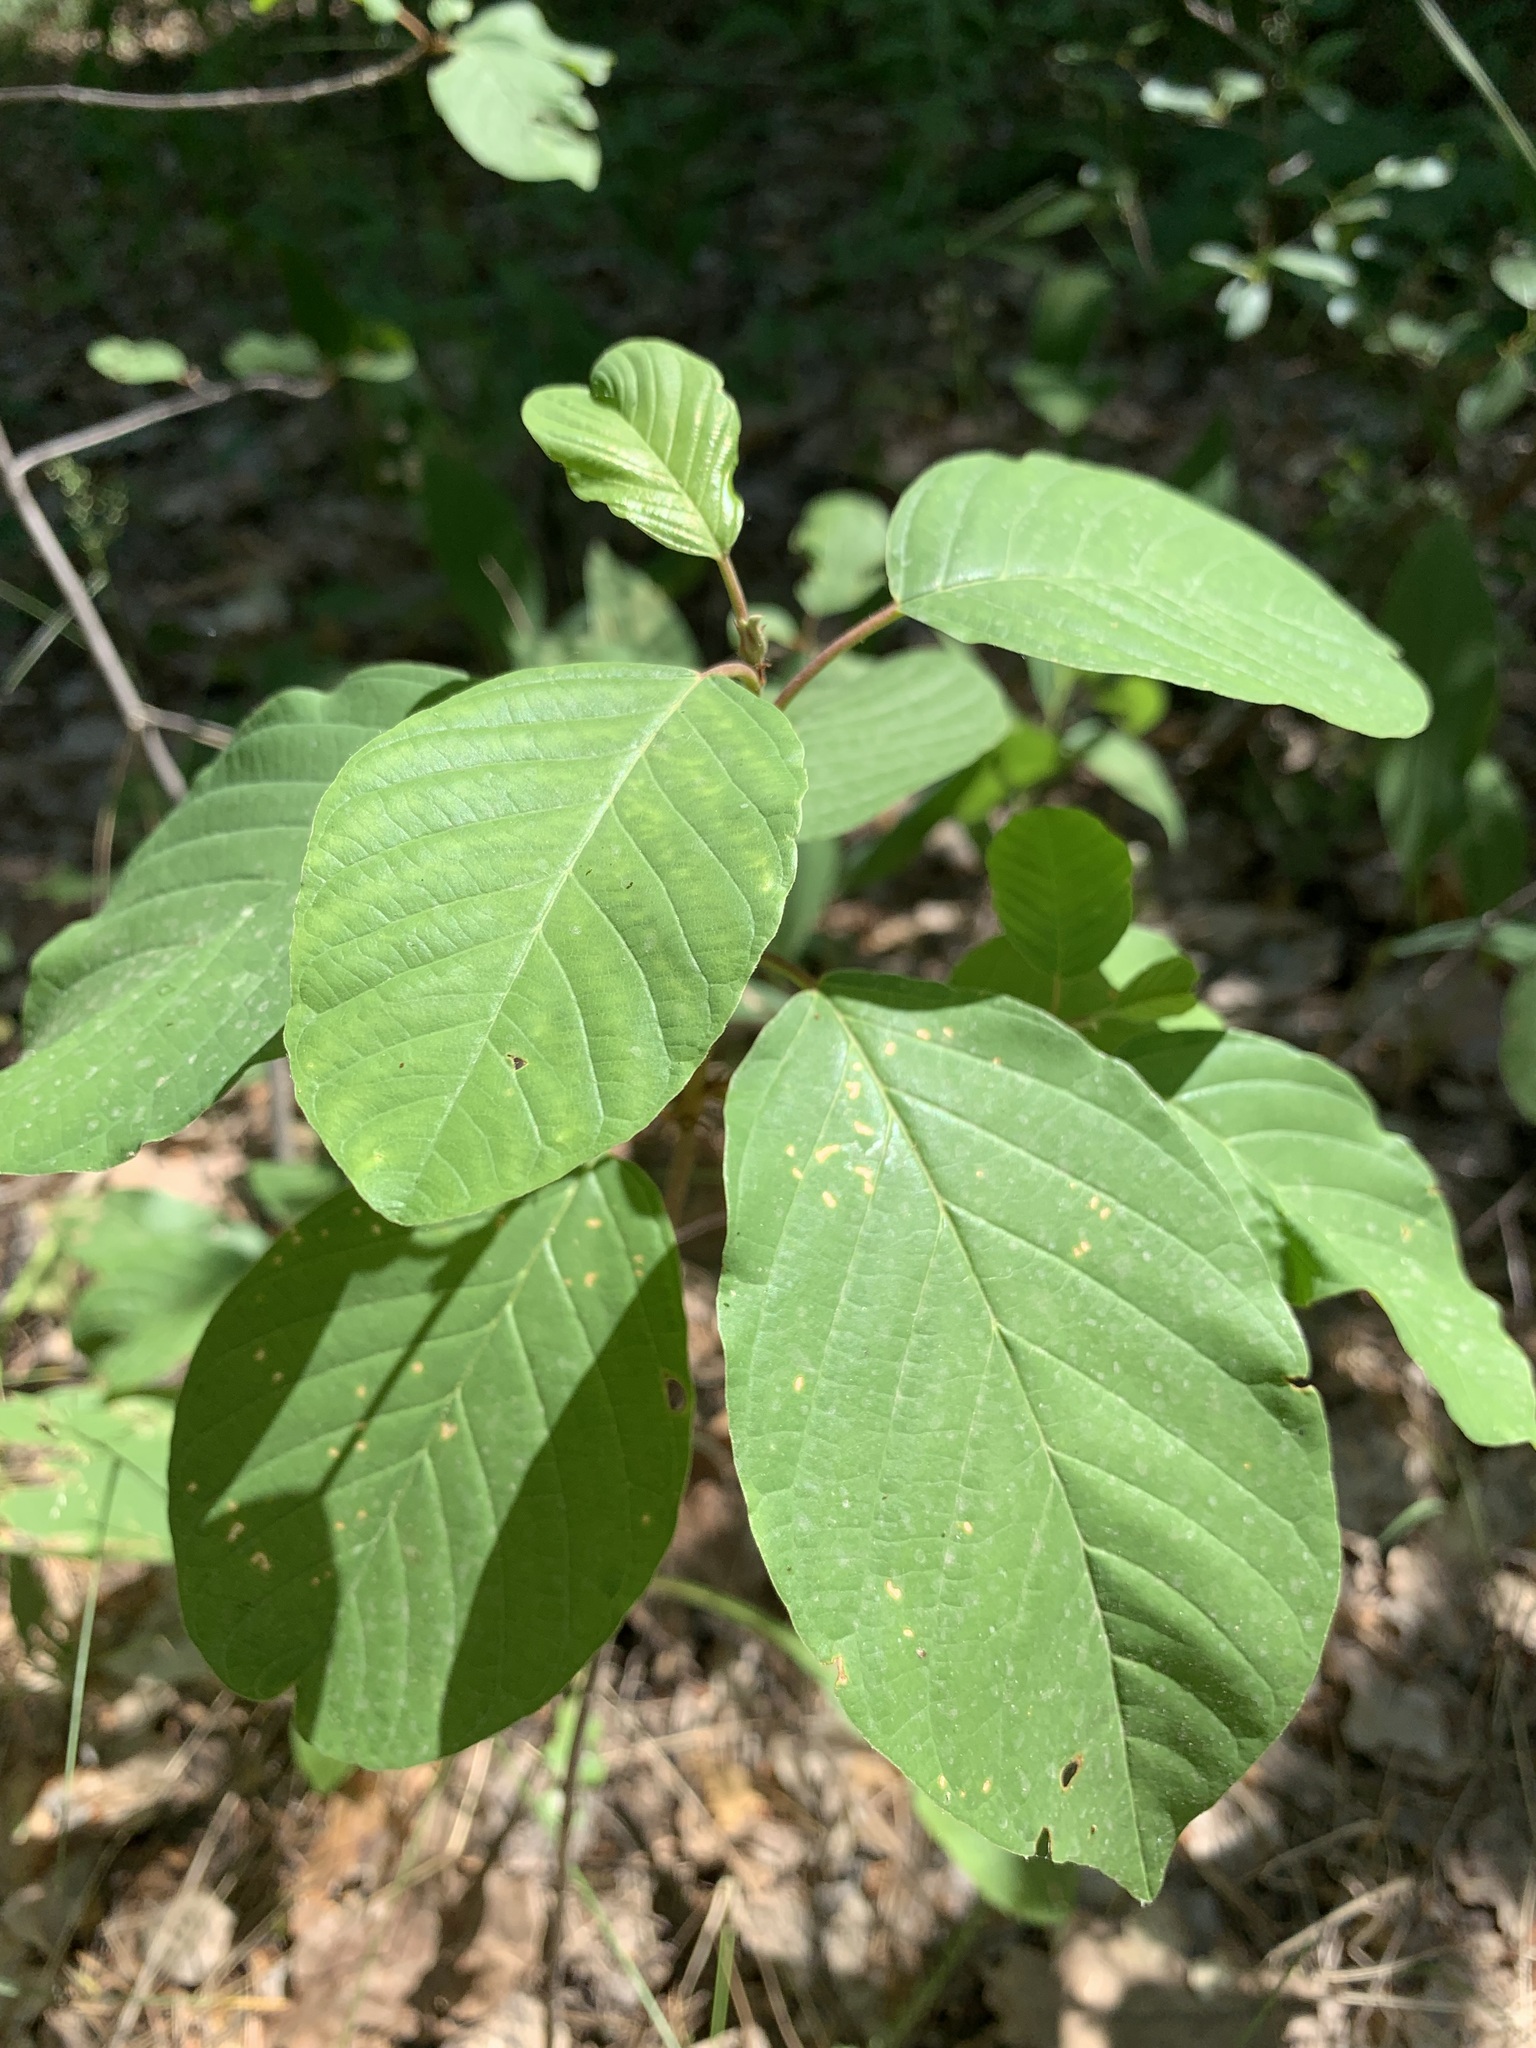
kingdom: Plantae
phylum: Tracheophyta
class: Magnoliopsida
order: Rosales
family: Rhamnaceae
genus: Frangula
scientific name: Frangula alnus
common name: Alder buckthorn
